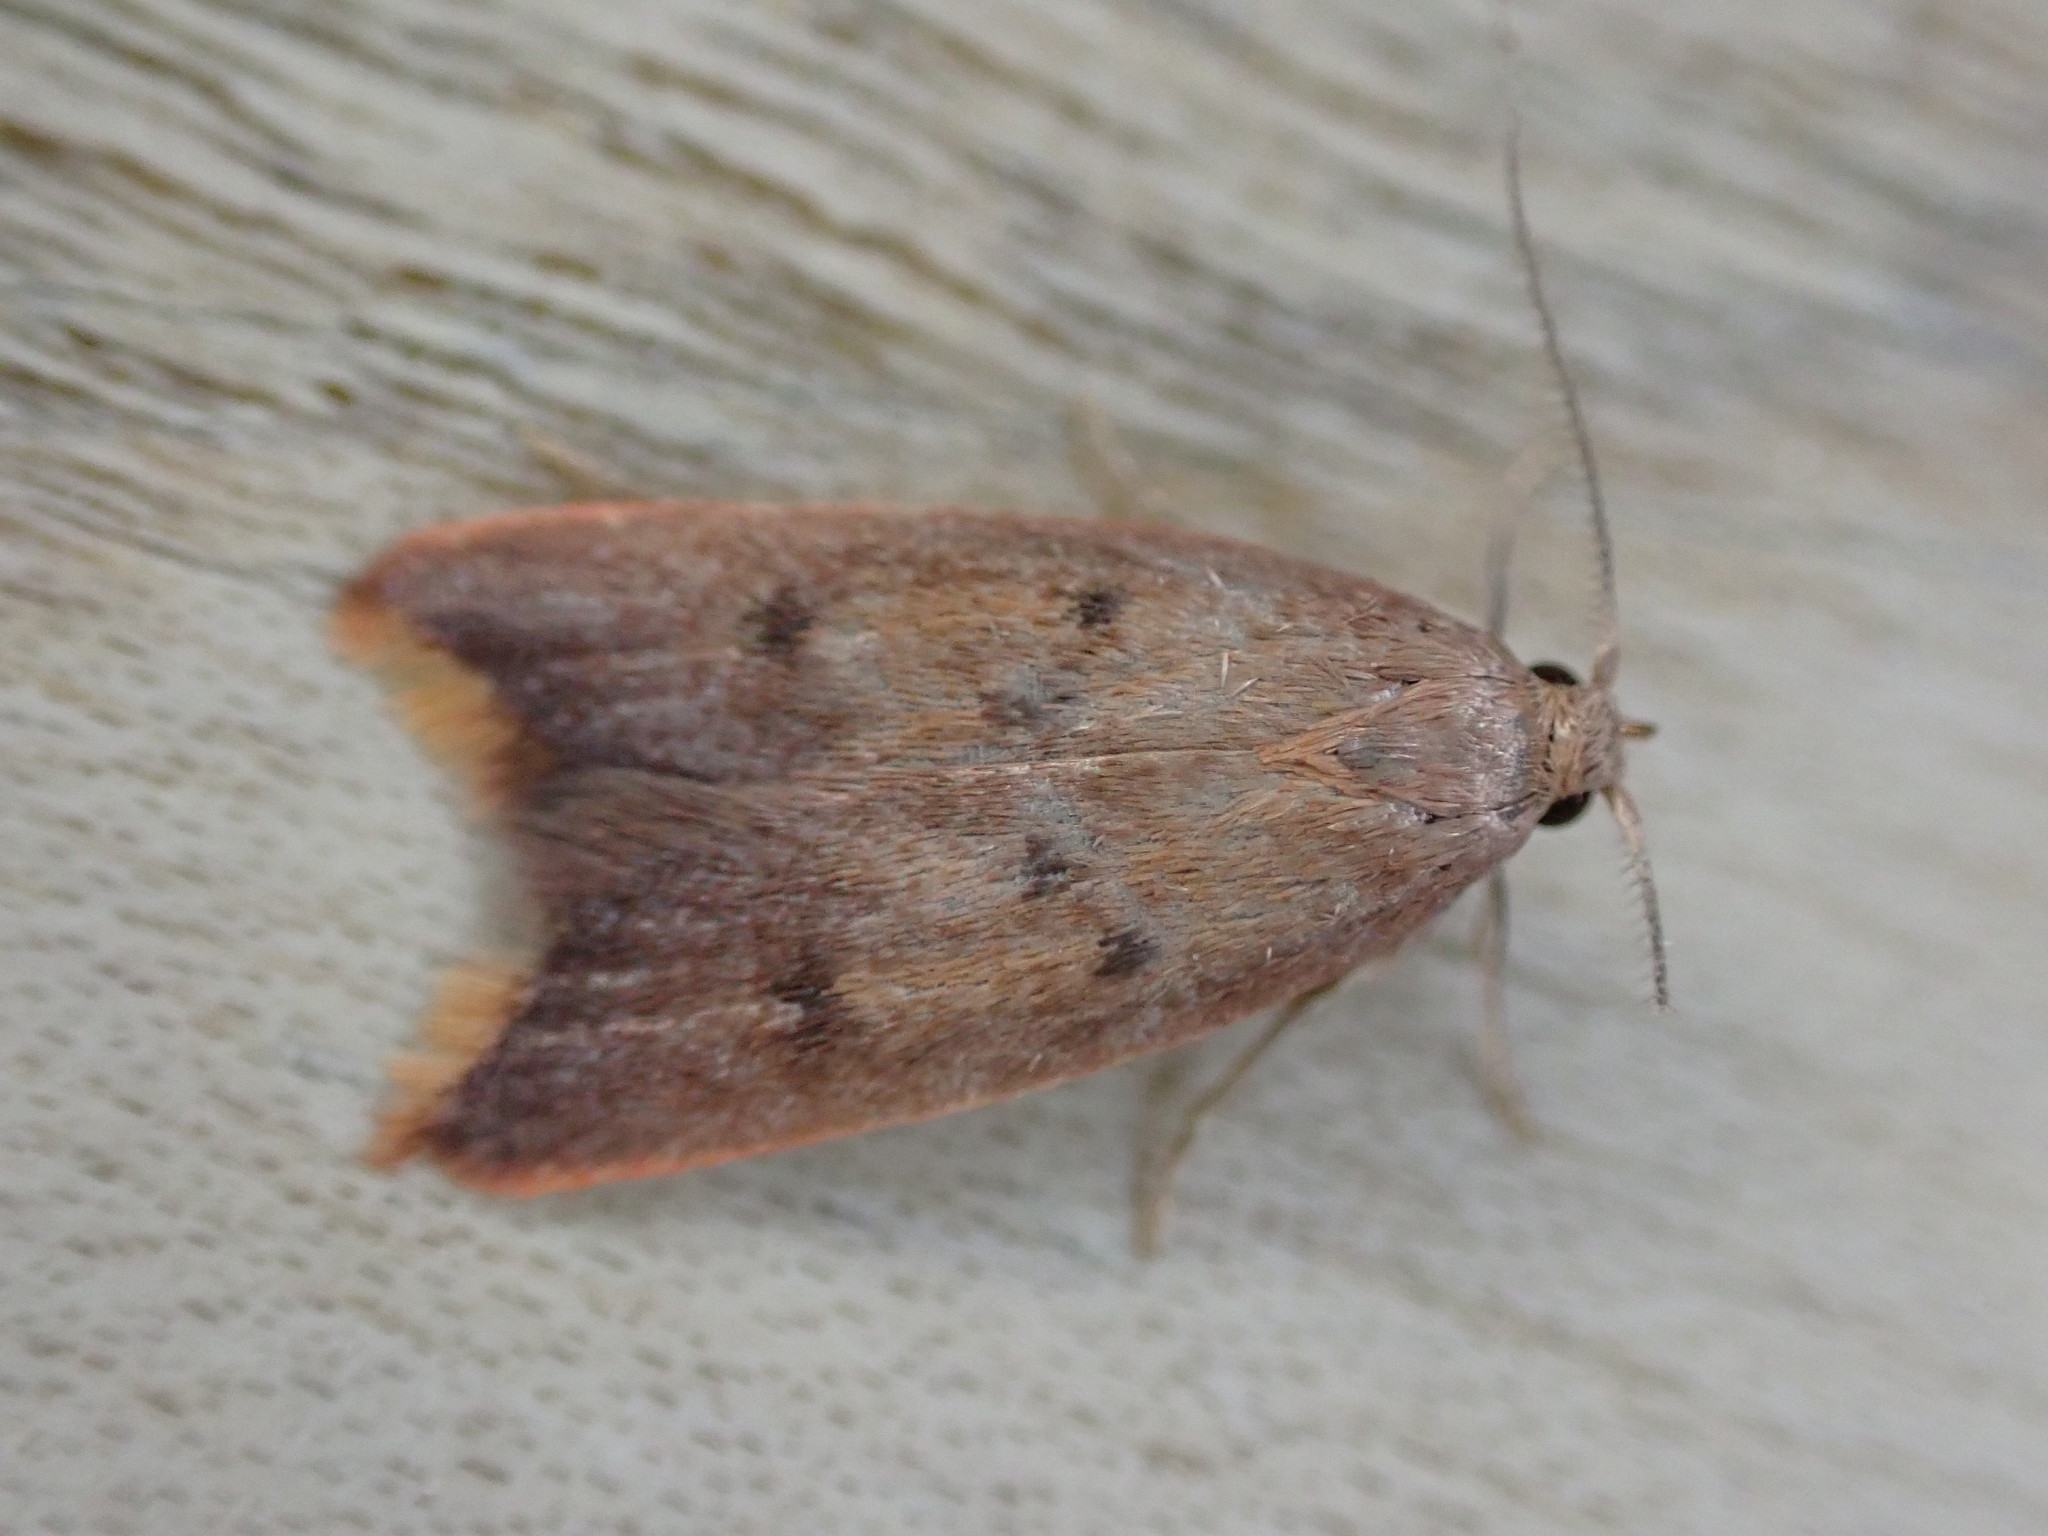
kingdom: Animalia
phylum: Arthropoda
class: Insecta
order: Lepidoptera
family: Oecophoridae
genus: Tachystola
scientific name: Tachystola acroxantha
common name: Ruddy streak
